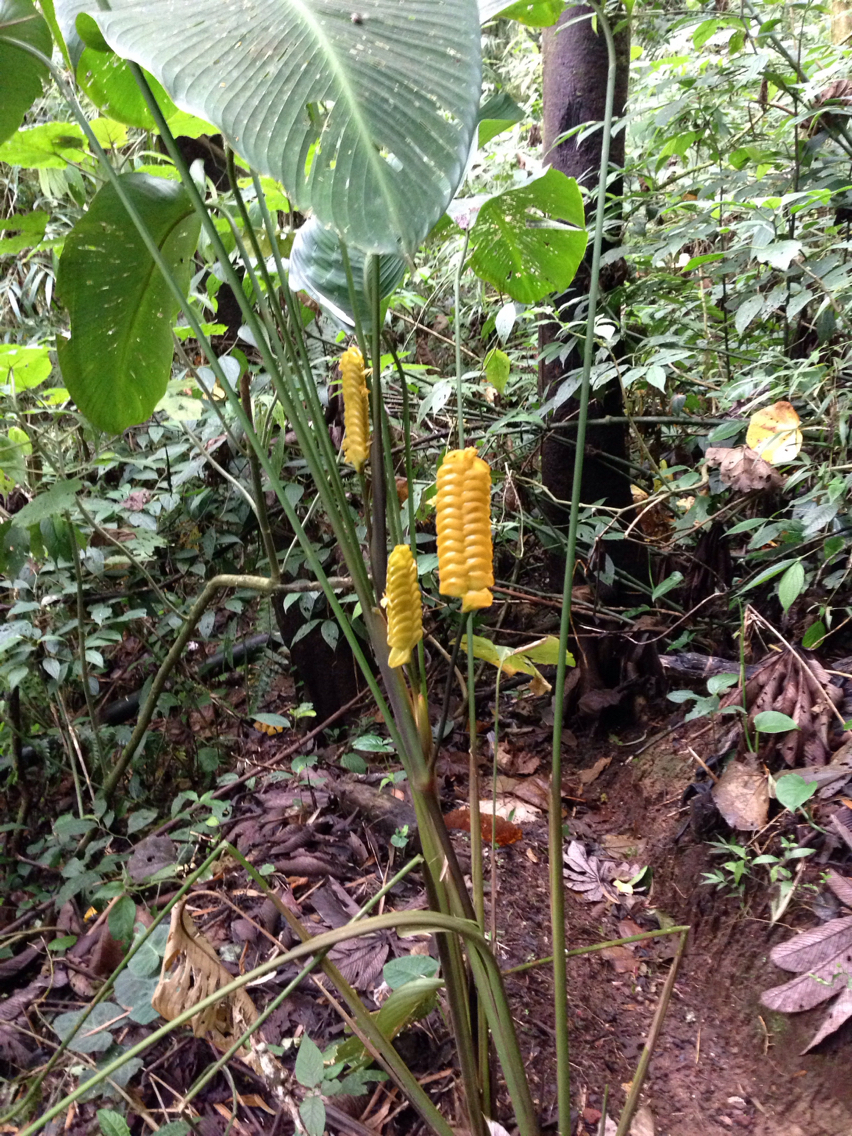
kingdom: Plantae
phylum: Tracheophyta
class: Liliopsida
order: Zingiberales
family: Marantaceae
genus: Calathea
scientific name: Calathea crotalifera
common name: Rattlesnake plant
